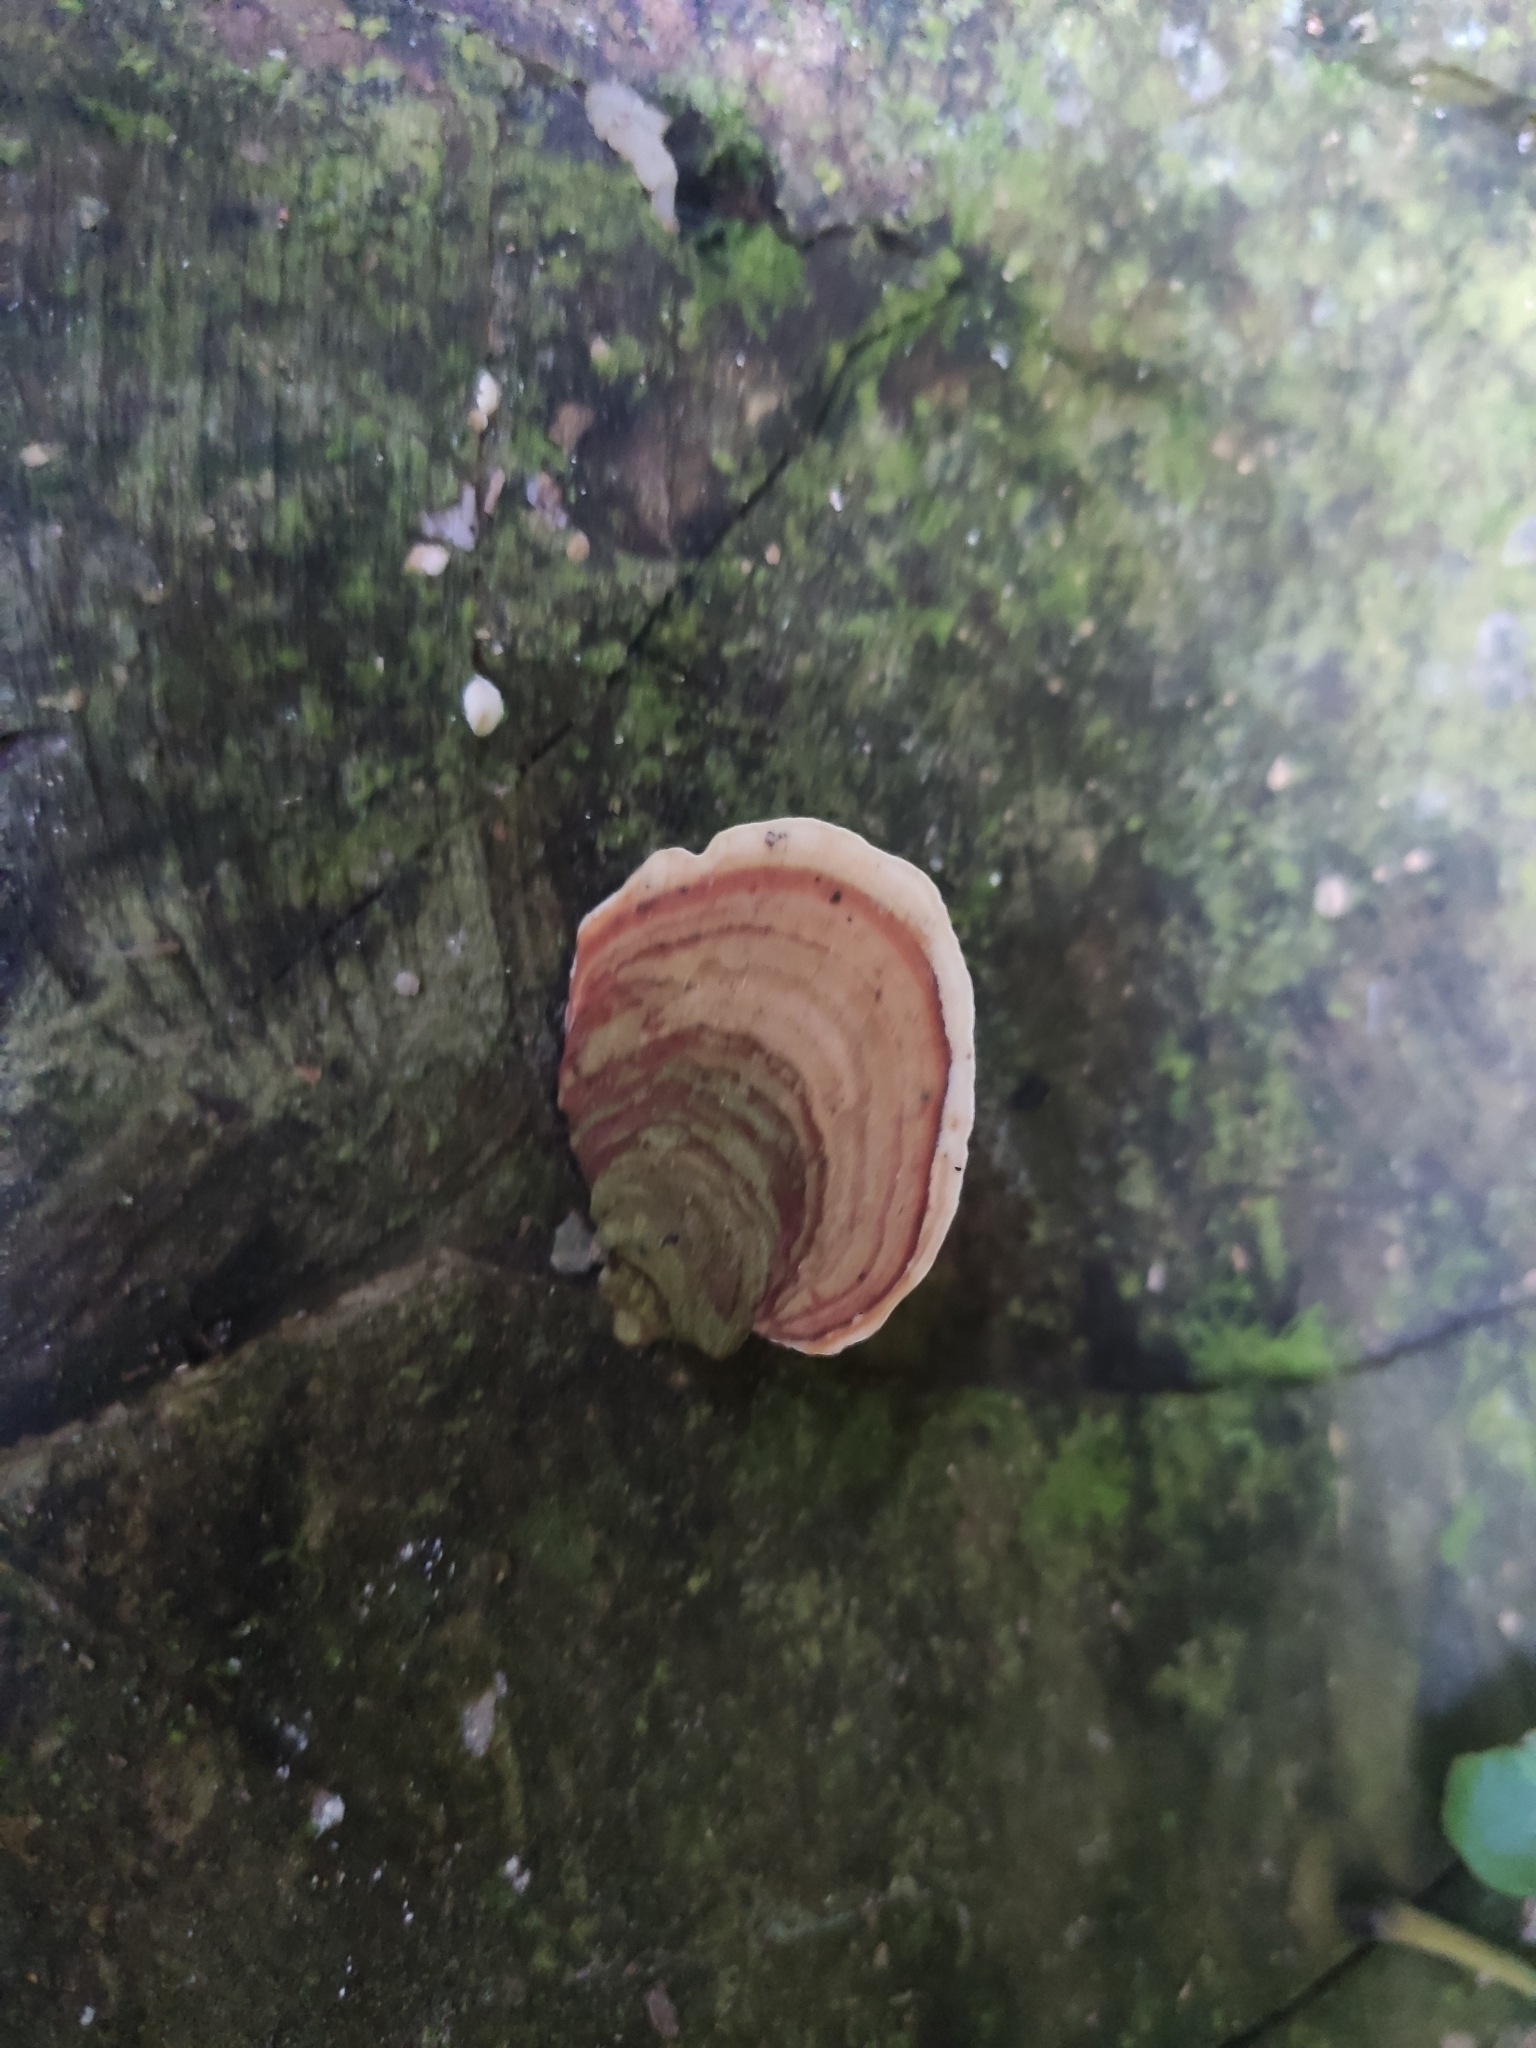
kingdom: Fungi
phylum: Basidiomycota
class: Agaricomycetes
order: Russulales
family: Stereaceae
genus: Stereum
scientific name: Stereum ostrea
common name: False turkeytail
